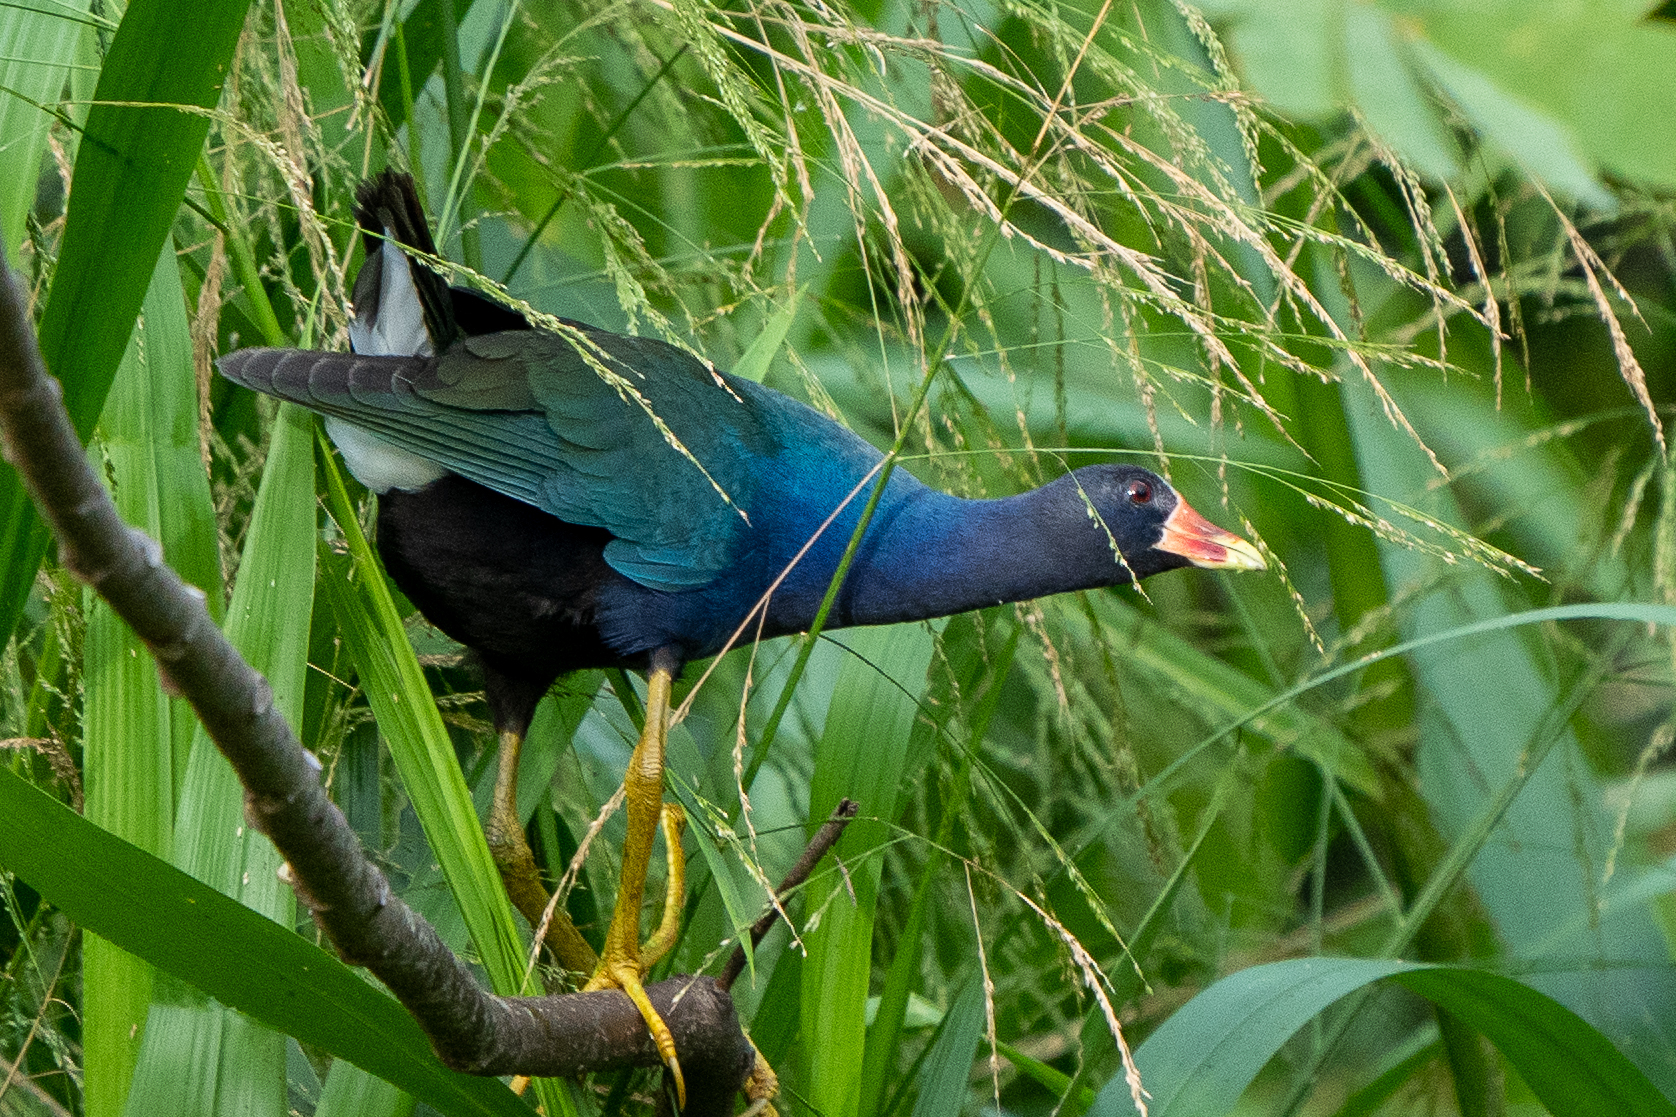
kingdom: Animalia
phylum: Chordata
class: Aves
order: Gruiformes
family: Rallidae
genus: Porphyrio
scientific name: Porphyrio martinica
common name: Purple gallinule
